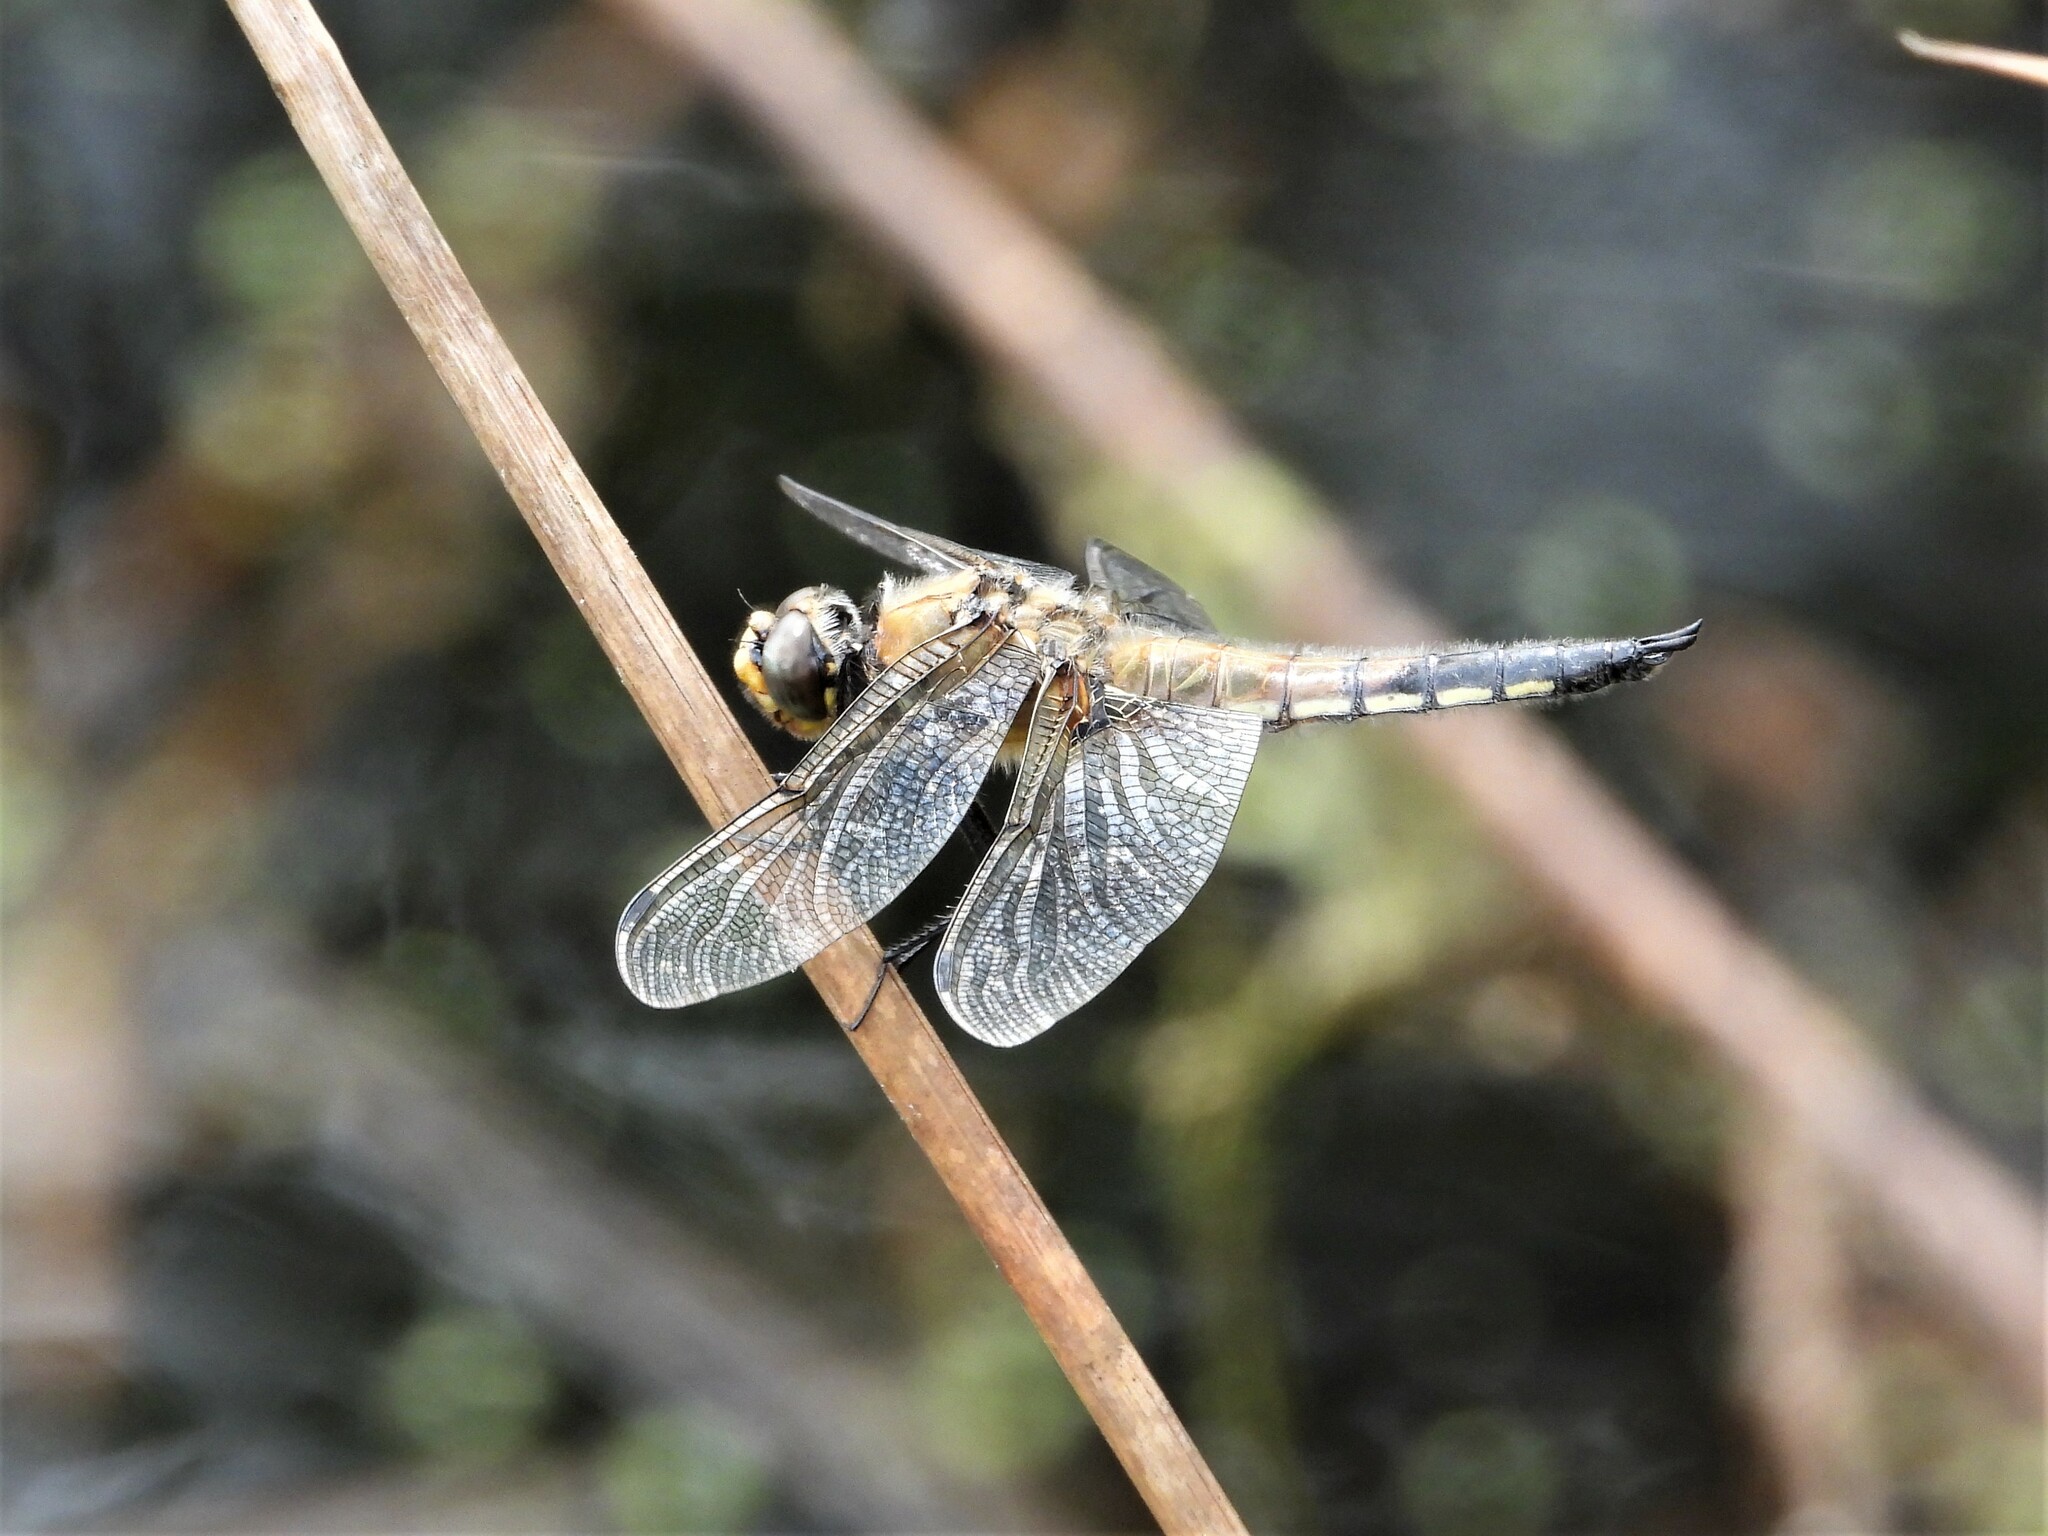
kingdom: Animalia
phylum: Arthropoda
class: Insecta
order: Odonata
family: Libellulidae
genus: Libellula
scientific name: Libellula quadrimaculata
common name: Four-spotted chaser
